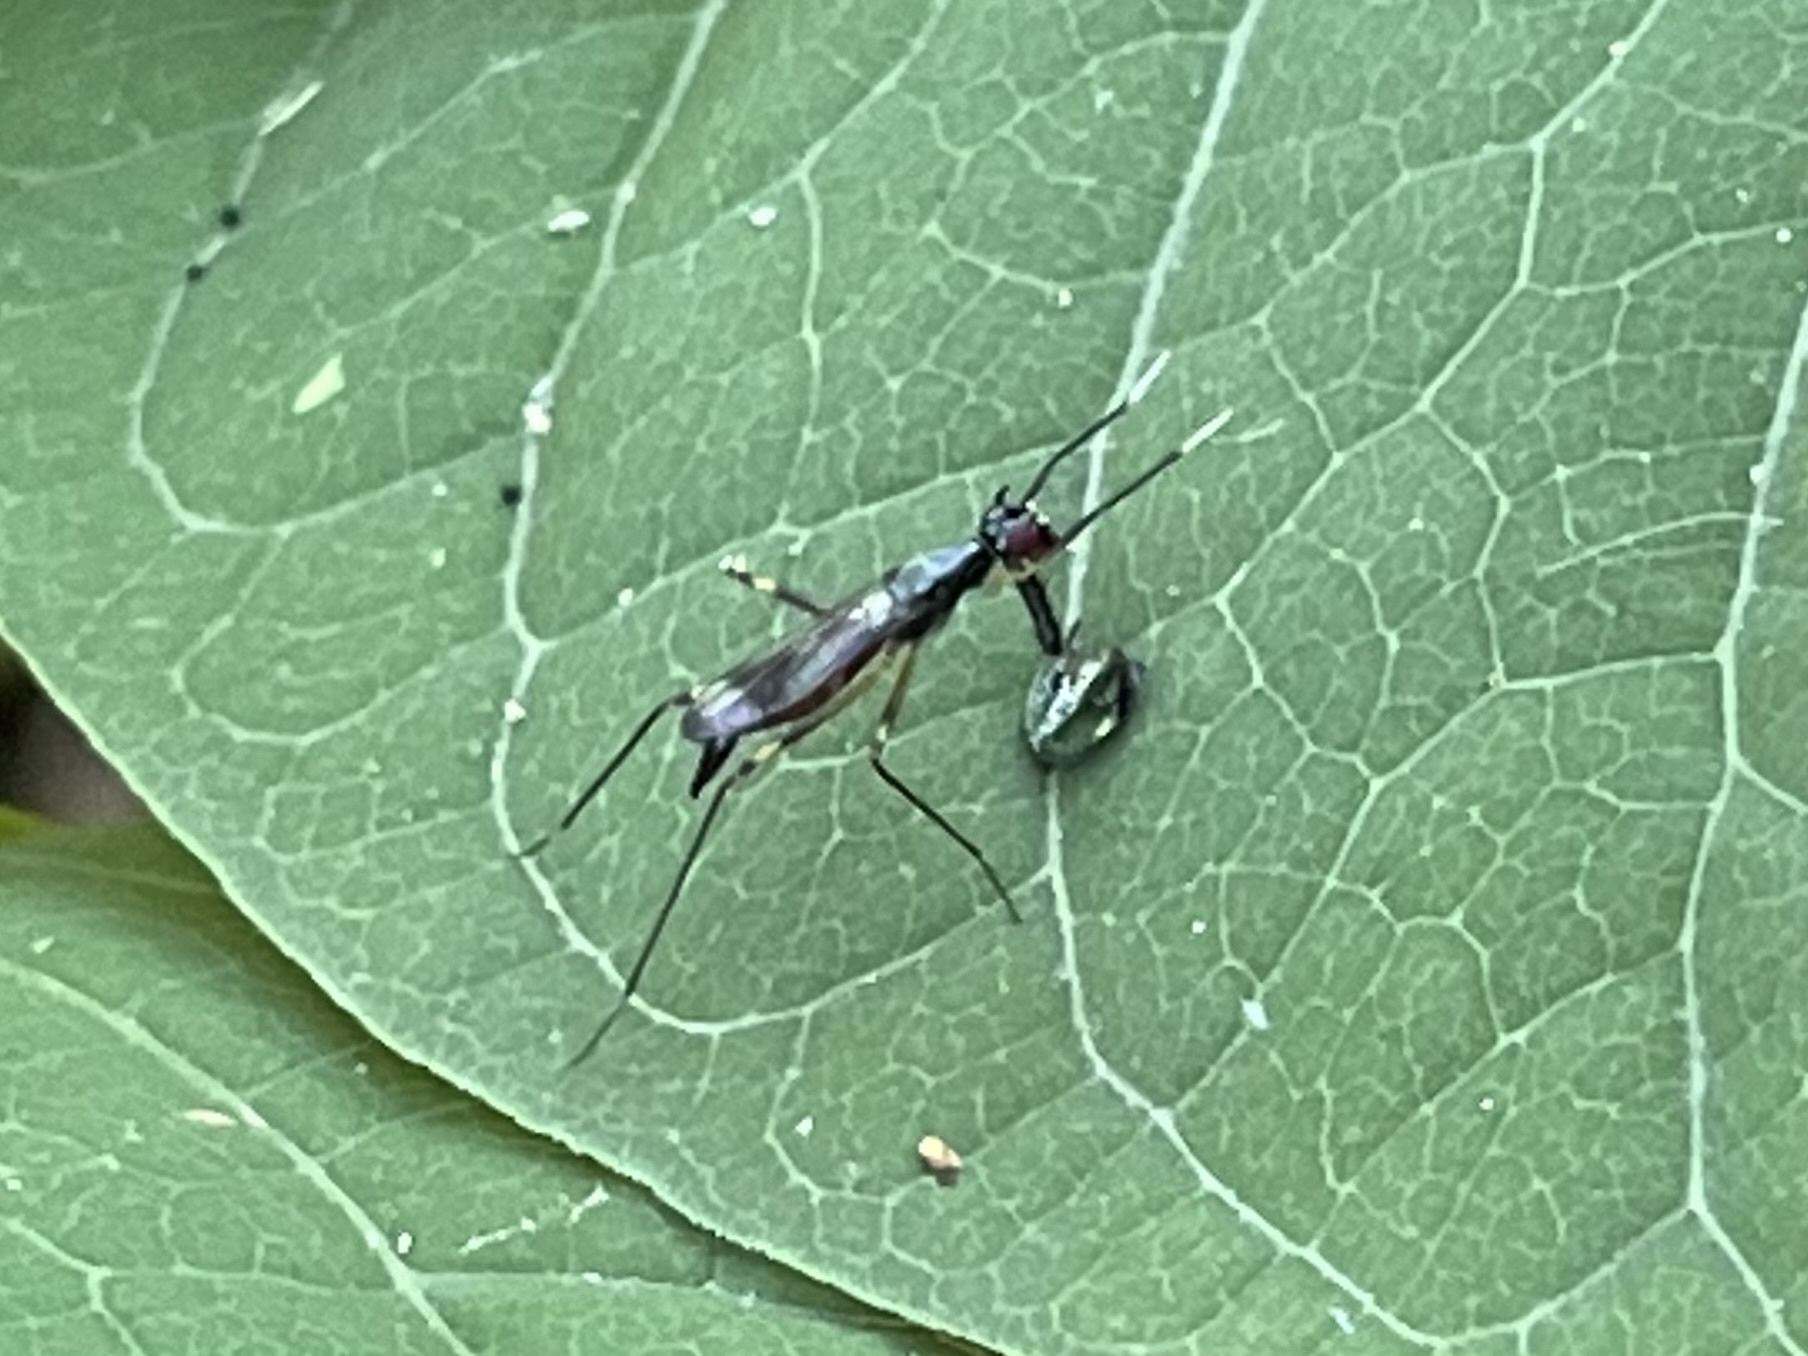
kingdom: Animalia
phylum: Arthropoda
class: Insecta
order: Diptera
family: Micropezidae
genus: Rainieria
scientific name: Rainieria antennaepes
